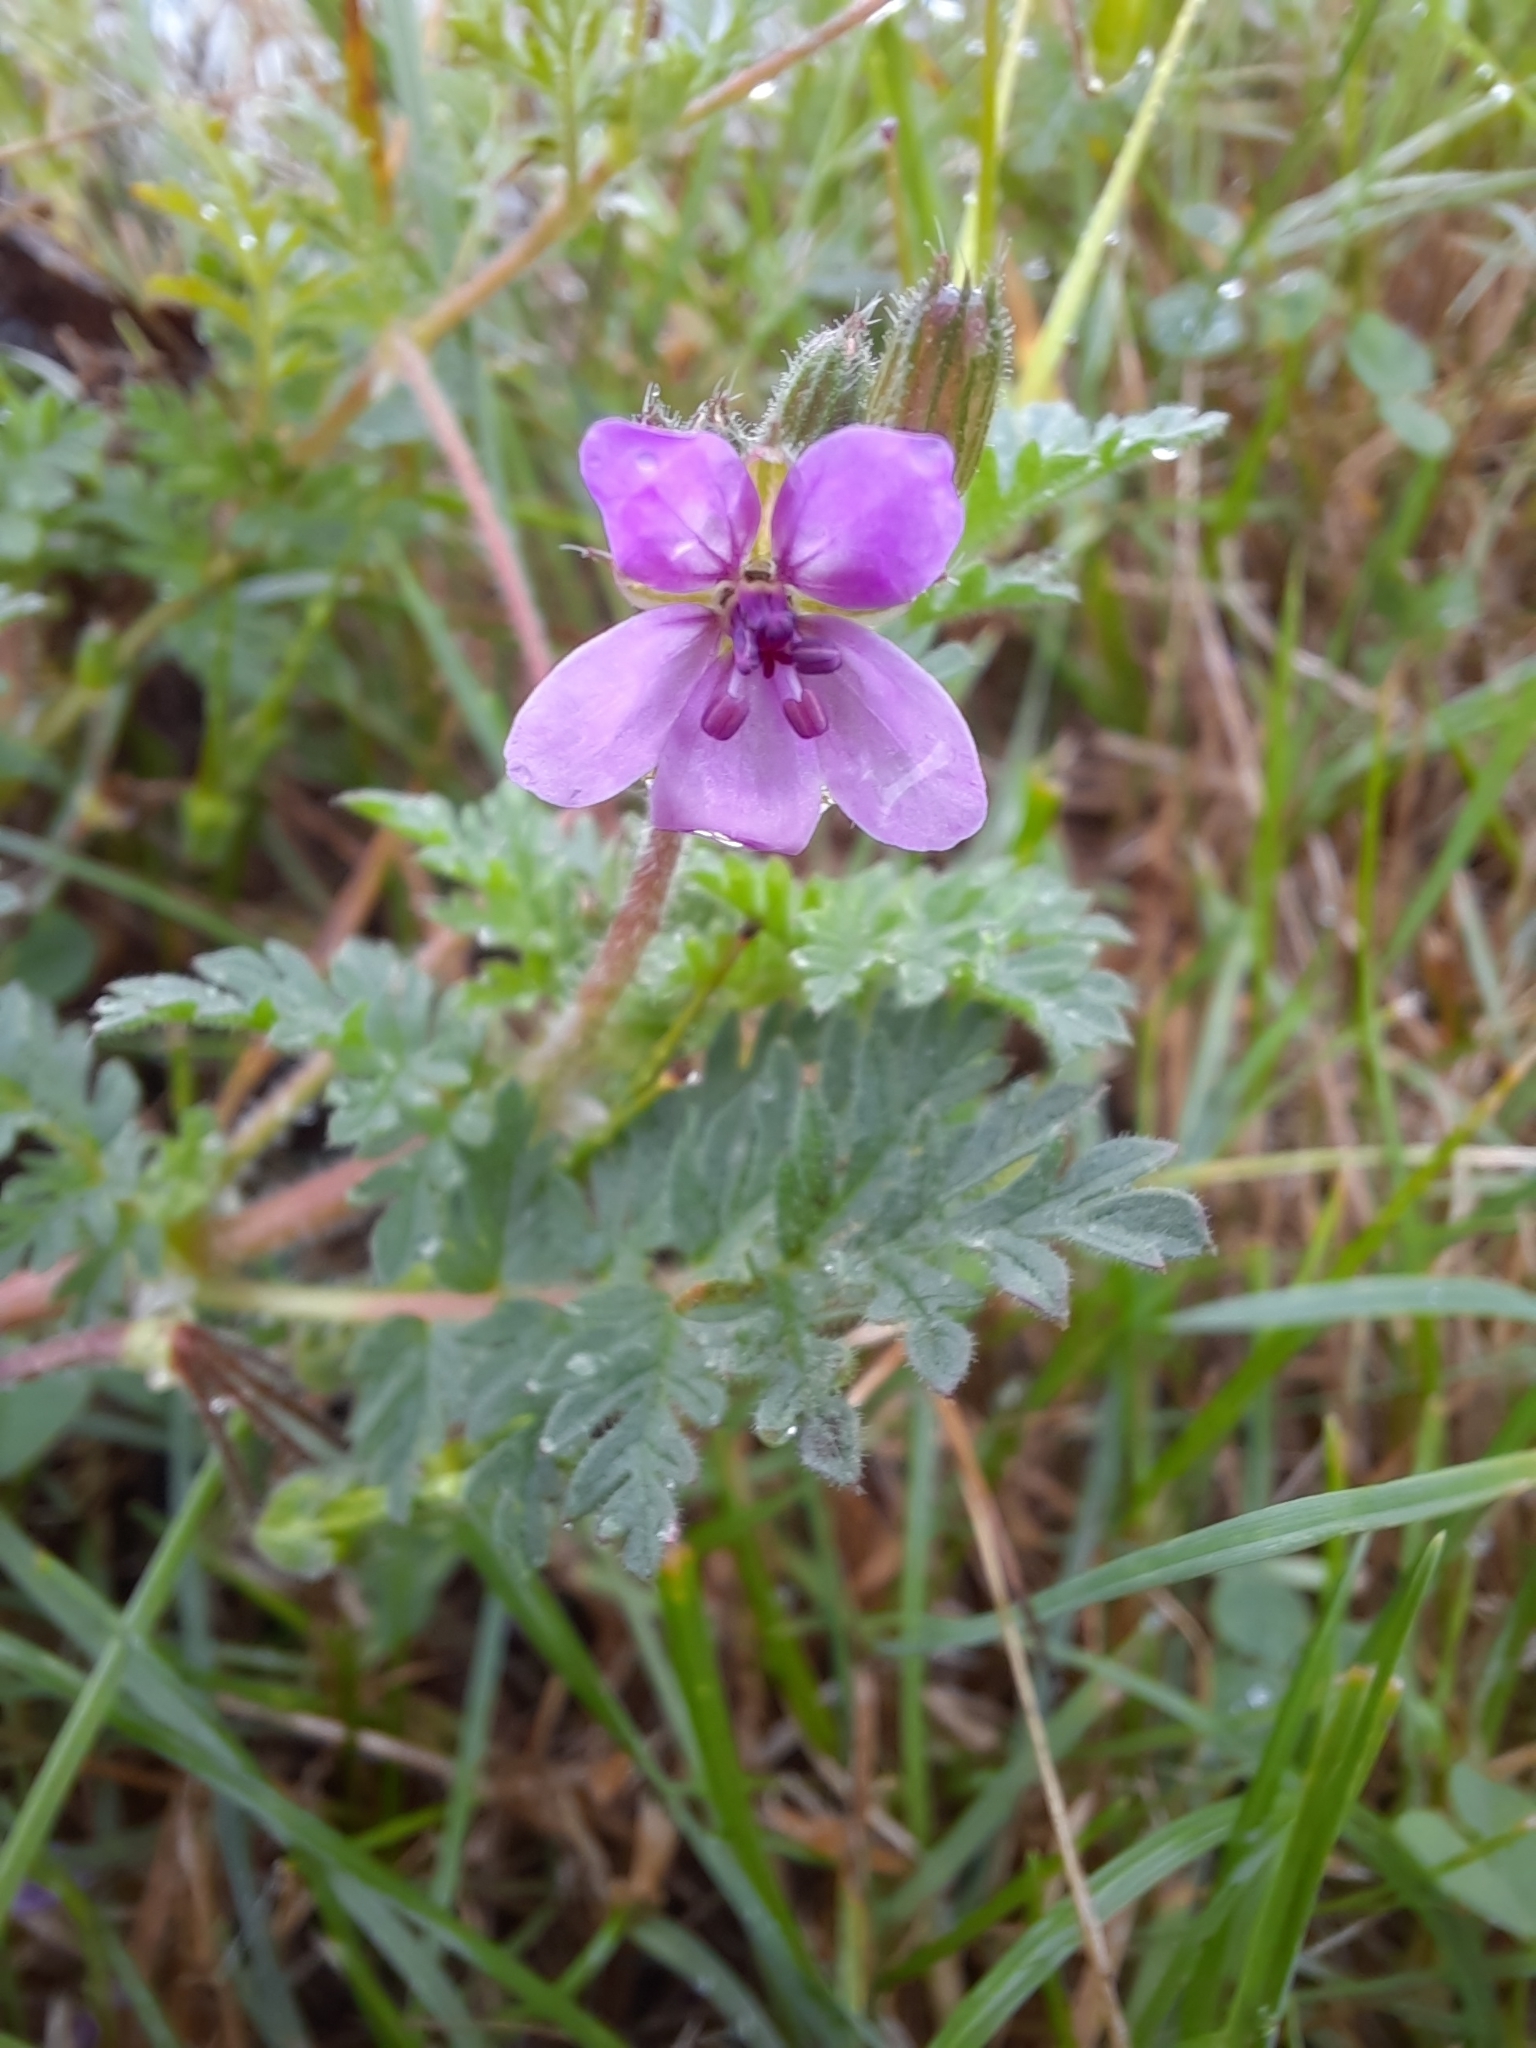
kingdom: Plantae
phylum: Tracheophyta
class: Magnoliopsida
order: Geraniales
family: Geraniaceae
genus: Erodium
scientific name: Erodium cicutarium
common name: Common stork's-bill
